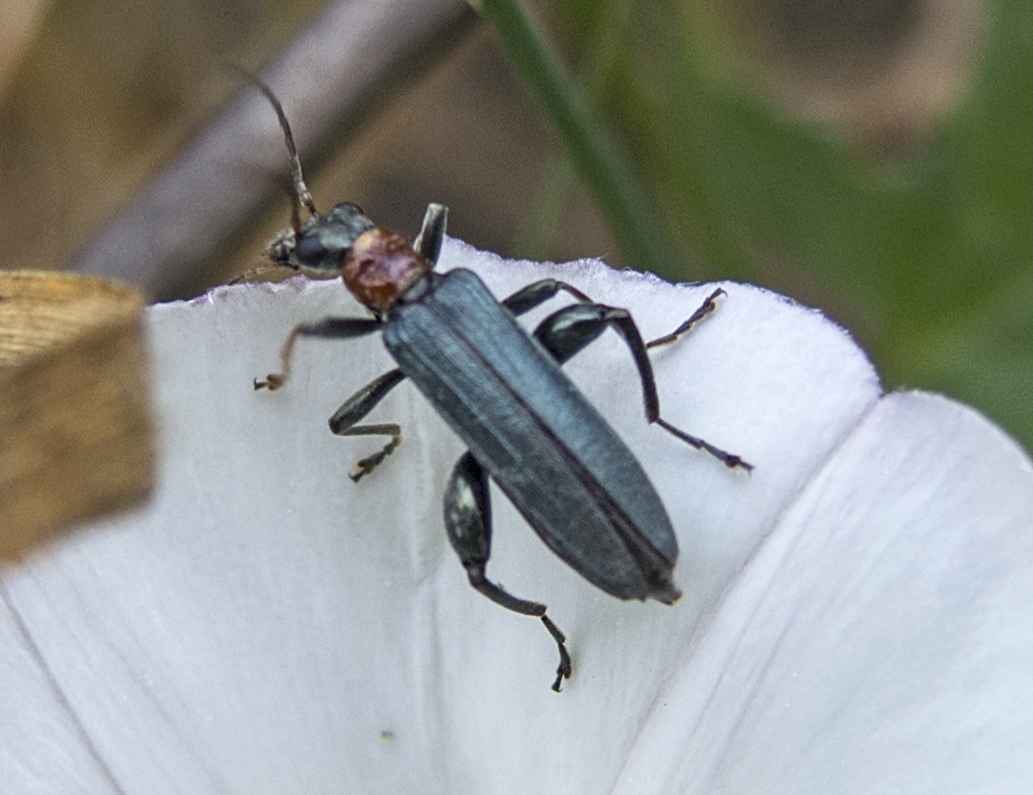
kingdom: Animalia
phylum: Arthropoda
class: Insecta
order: Coleoptera
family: Oedemeridae
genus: Oedemera
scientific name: Oedemera croceicollis
